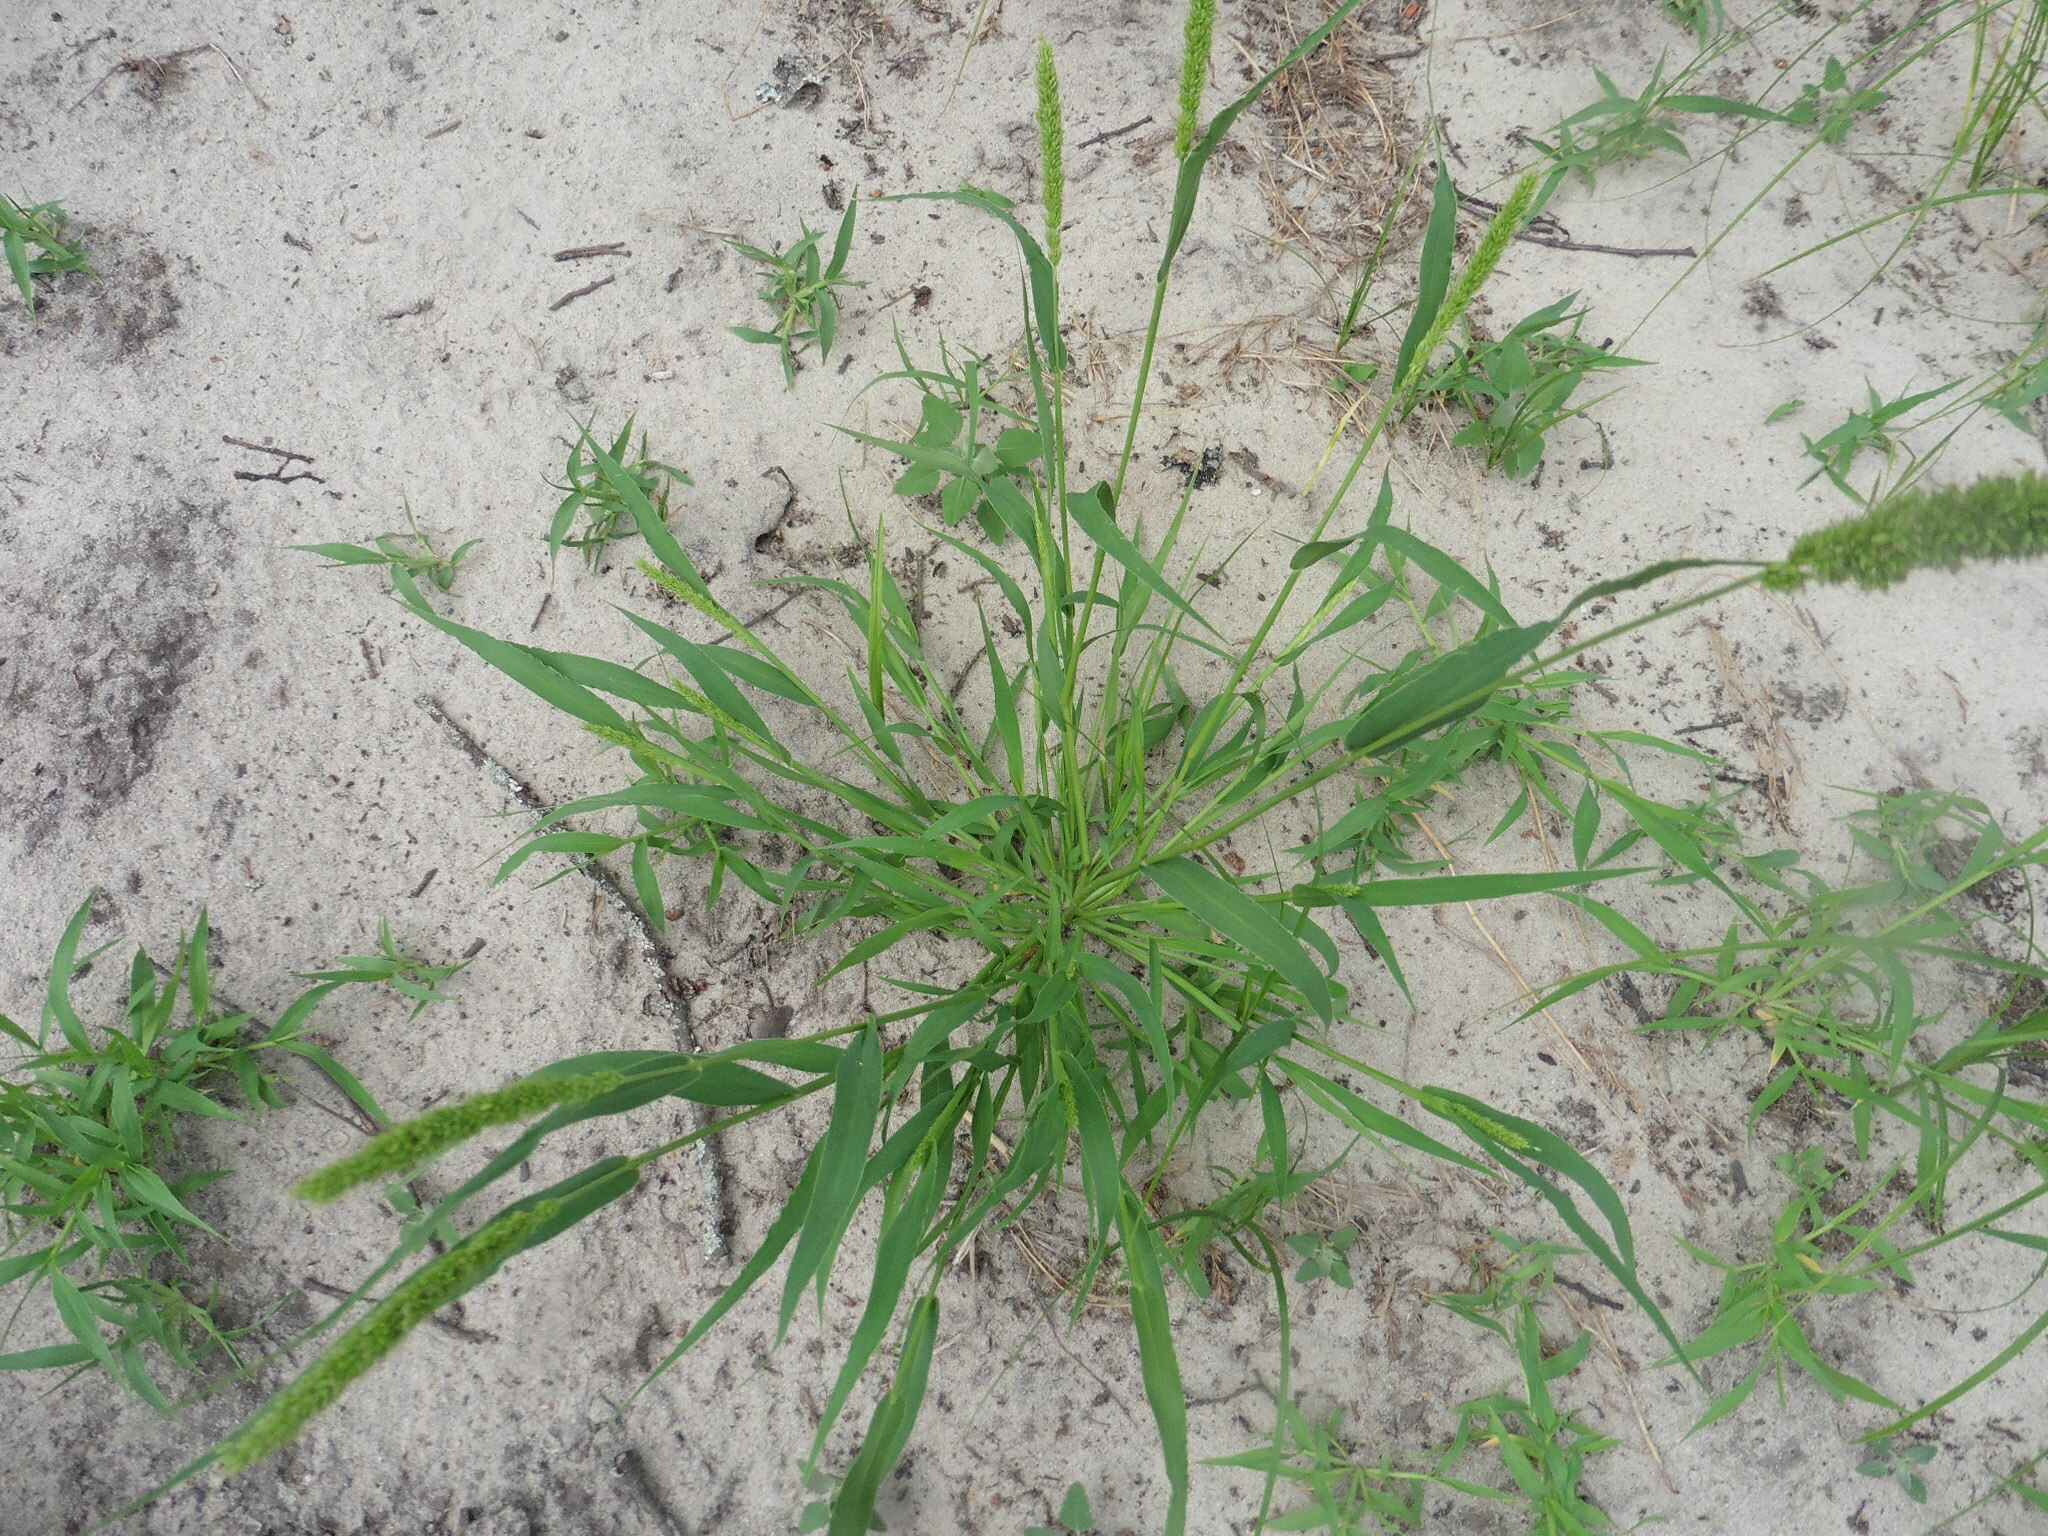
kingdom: Plantae
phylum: Tracheophyta
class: Liliopsida
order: Poales
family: Poaceae
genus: Setaria
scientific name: Setaria viridis
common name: Green bristlegrass
